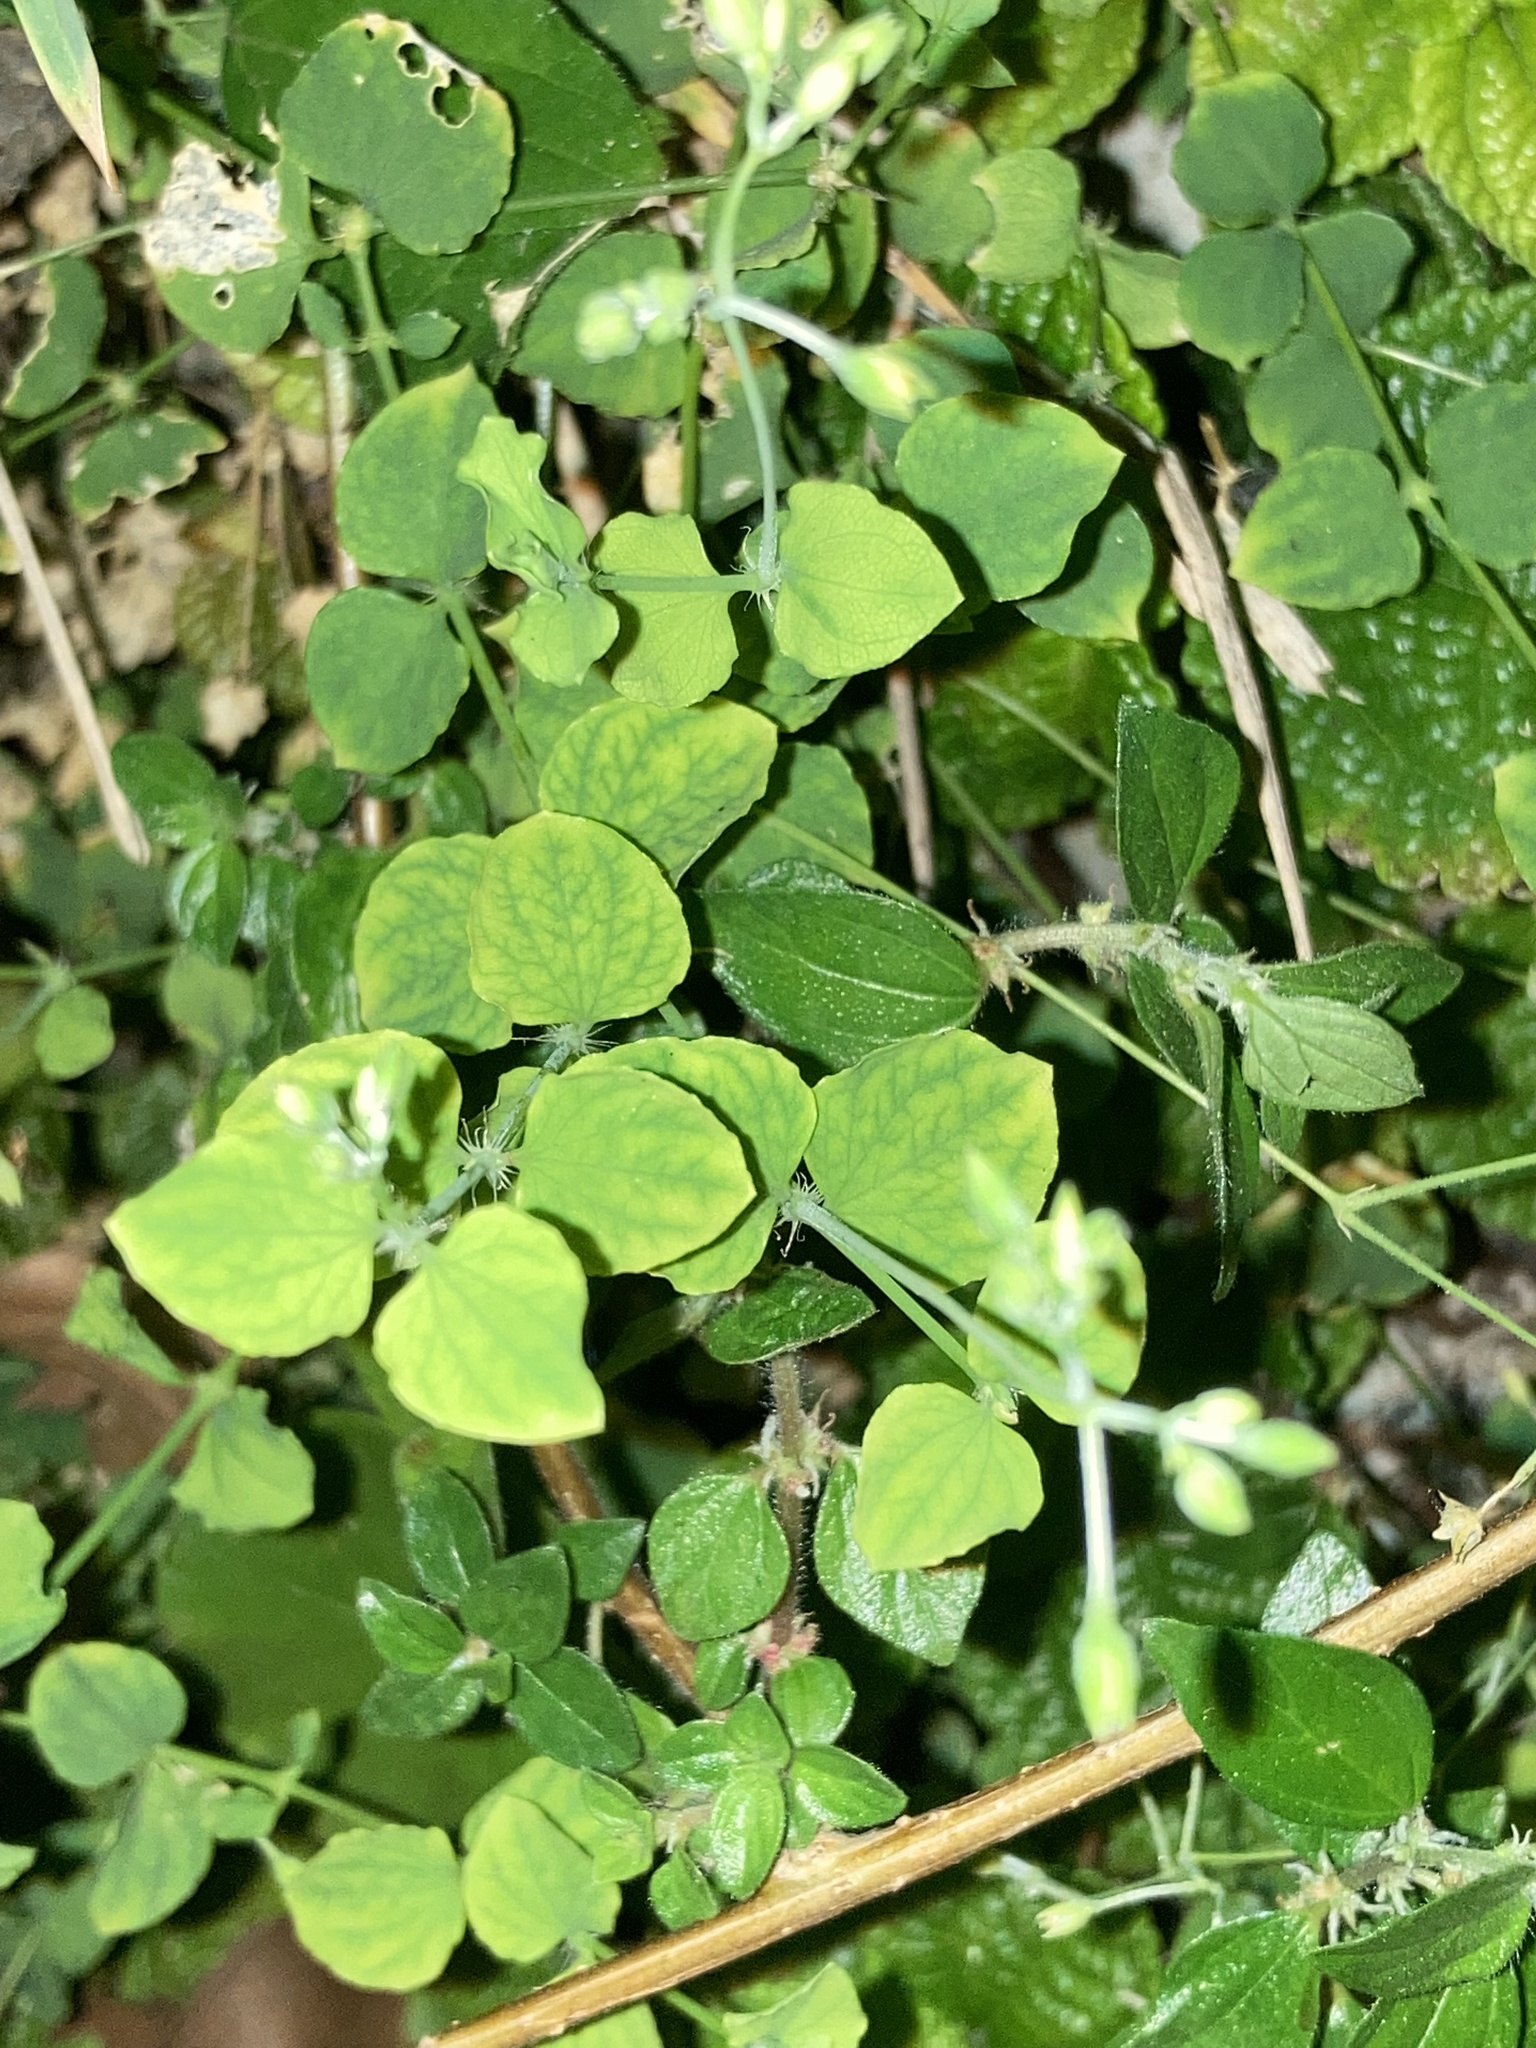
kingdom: Plantae
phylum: Tracheophyta
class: Magnoliopsida
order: Caryophyllales
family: Caryophyllaceae
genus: Drymaria
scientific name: Drymaria cordata
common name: Whitesnow
